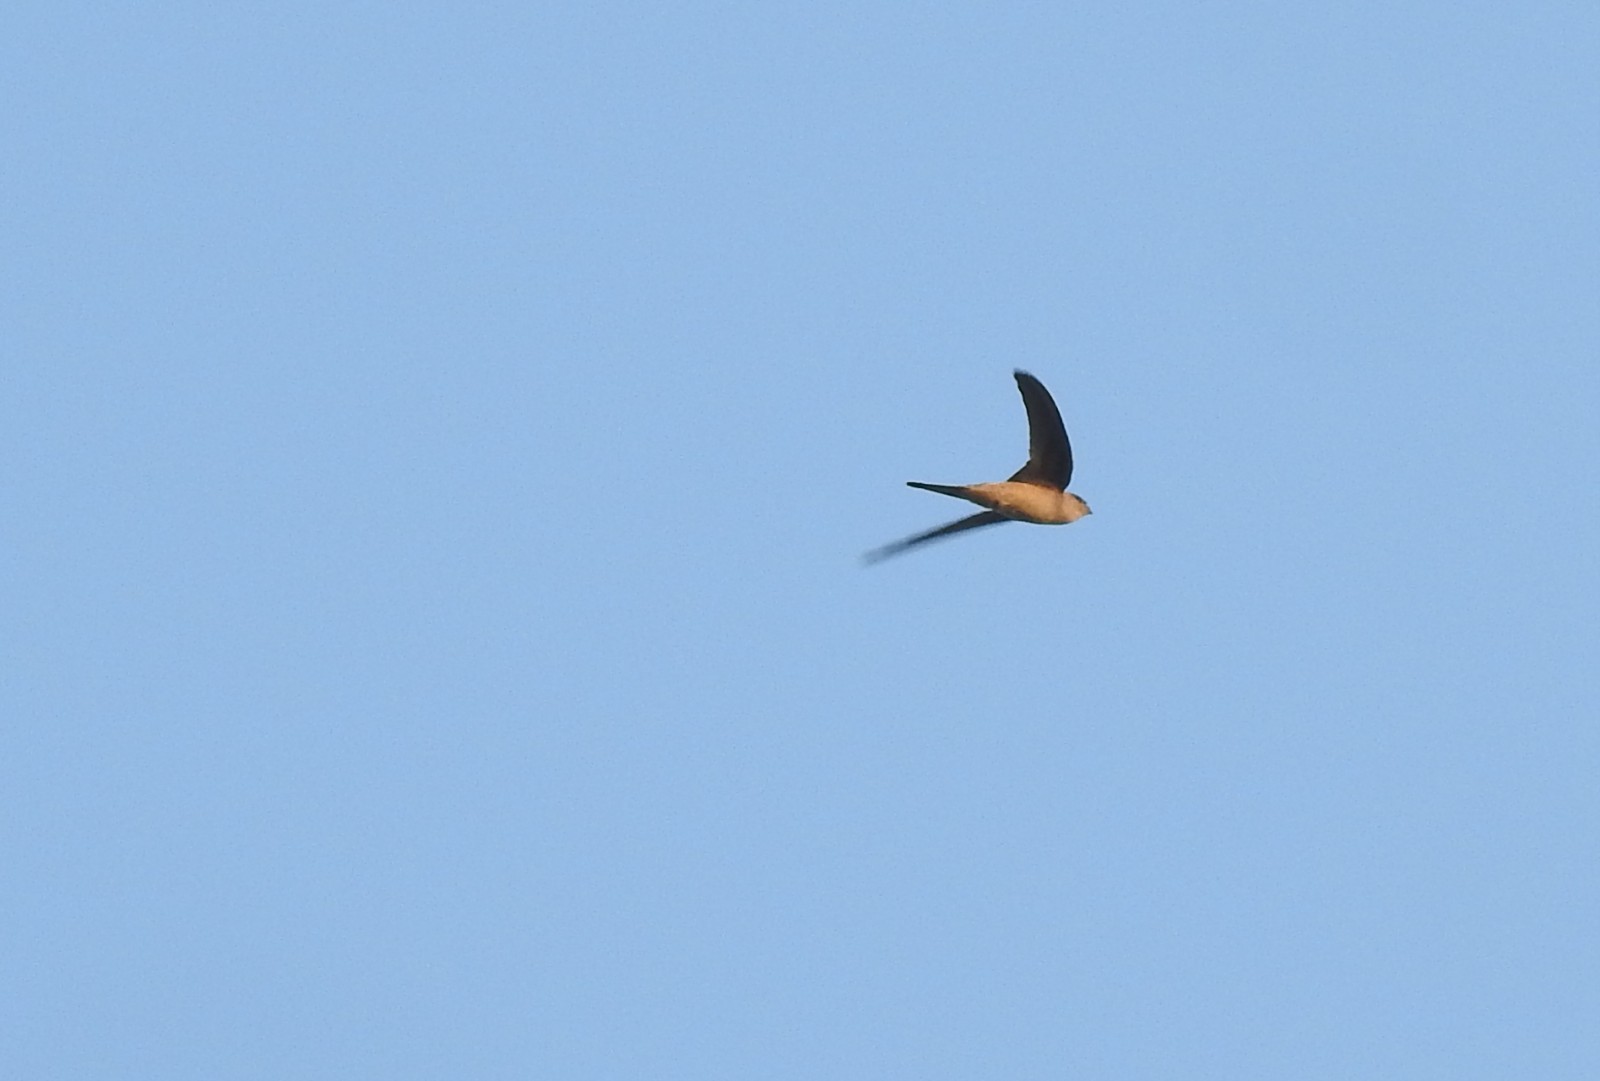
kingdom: Animalia
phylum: Chordata
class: Aves
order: Apodiformes
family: Apodidae
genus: Cypsiurus
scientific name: Cypsiurus balasiensis
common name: Asian palm swift
